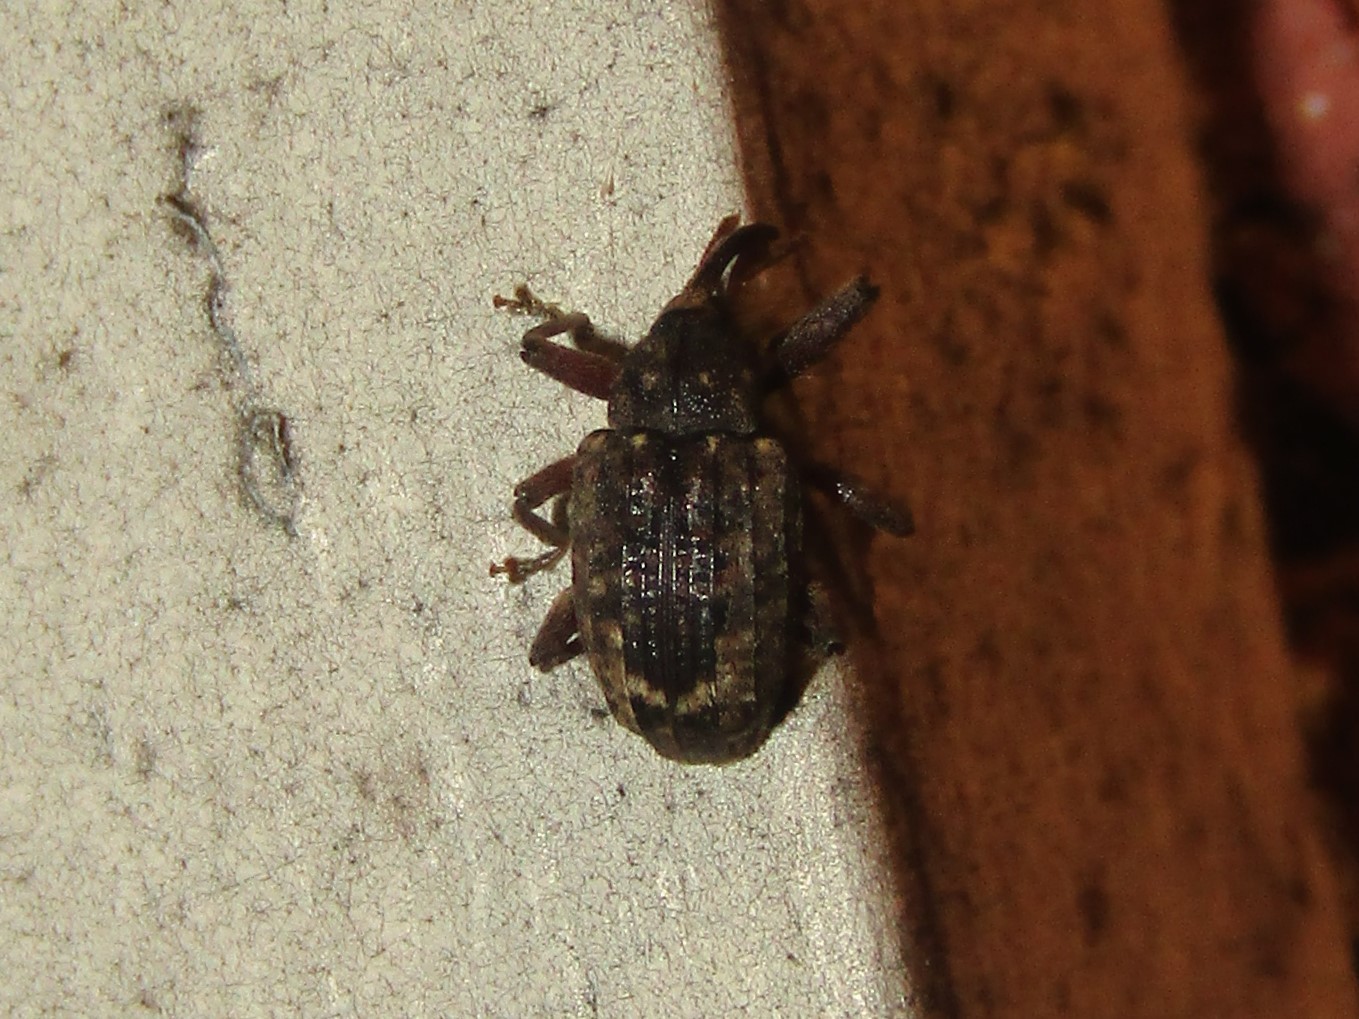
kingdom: Animalia
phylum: Arthropoda
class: Insecta
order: Coleoptera
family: Curculionidae
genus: Conotrachelus
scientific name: Conotrachelus posticatus
